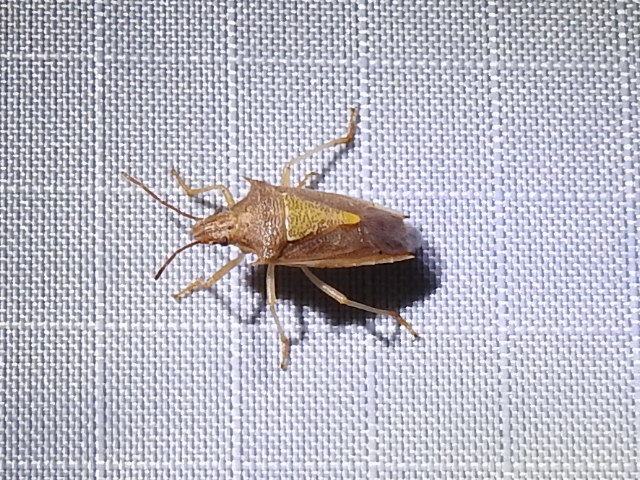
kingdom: Animalia
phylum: Arthropoda
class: Insecta
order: Hemiptera
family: Pentatomidae
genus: Oebalus
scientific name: Oebalus pugnax
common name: Rice stink bug
